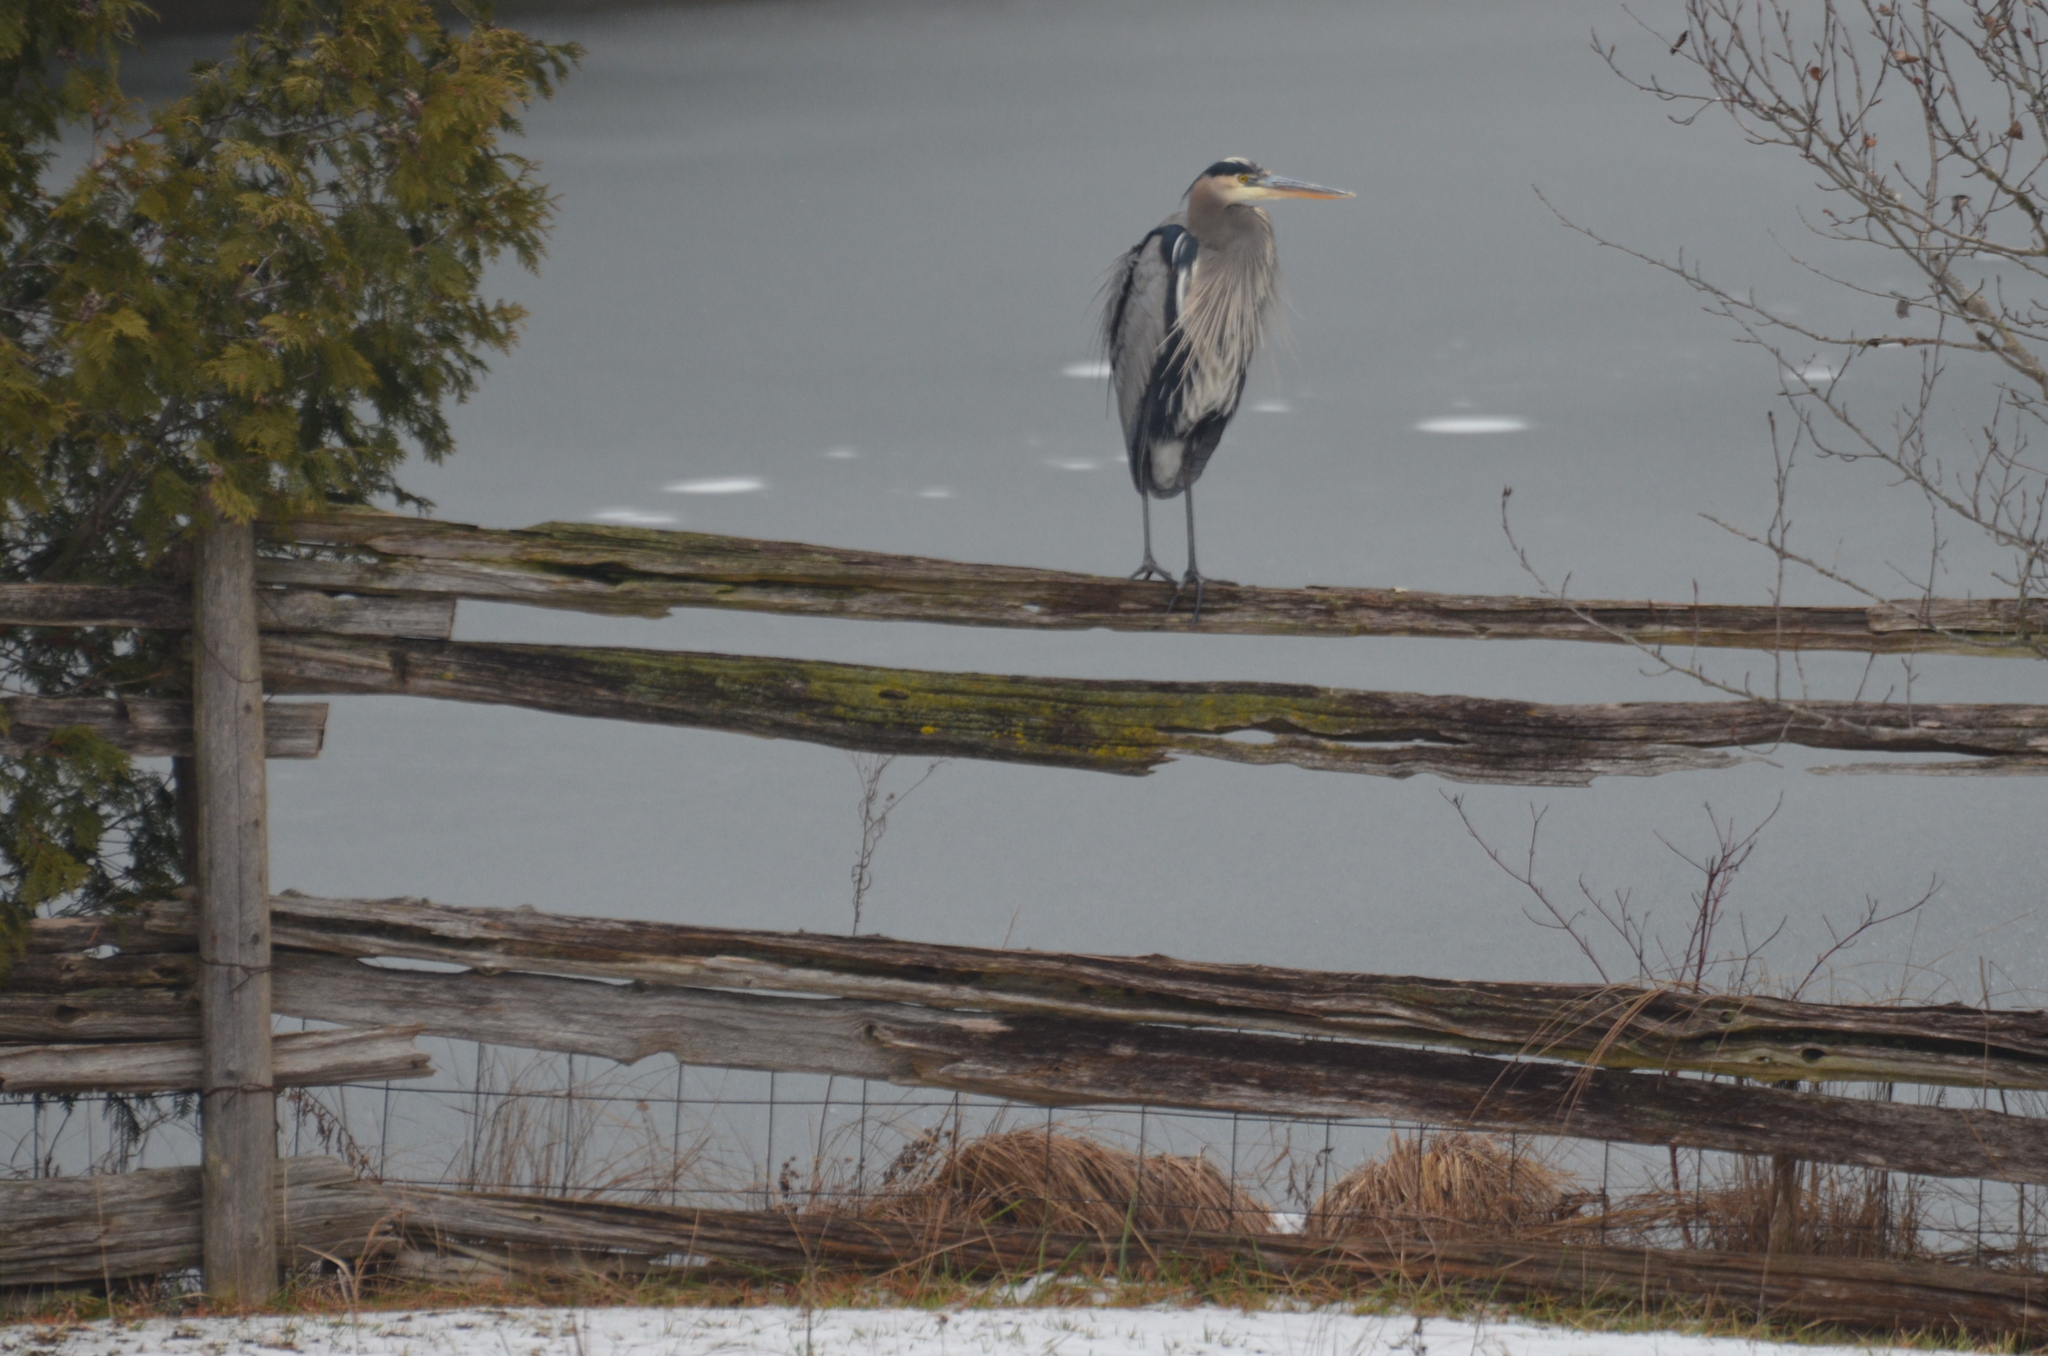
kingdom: Animalia
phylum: Chordata
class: Aves
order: Pelecaniformes
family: Ardeidae
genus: Ardea
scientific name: Ardea herodias
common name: Great blue heron
